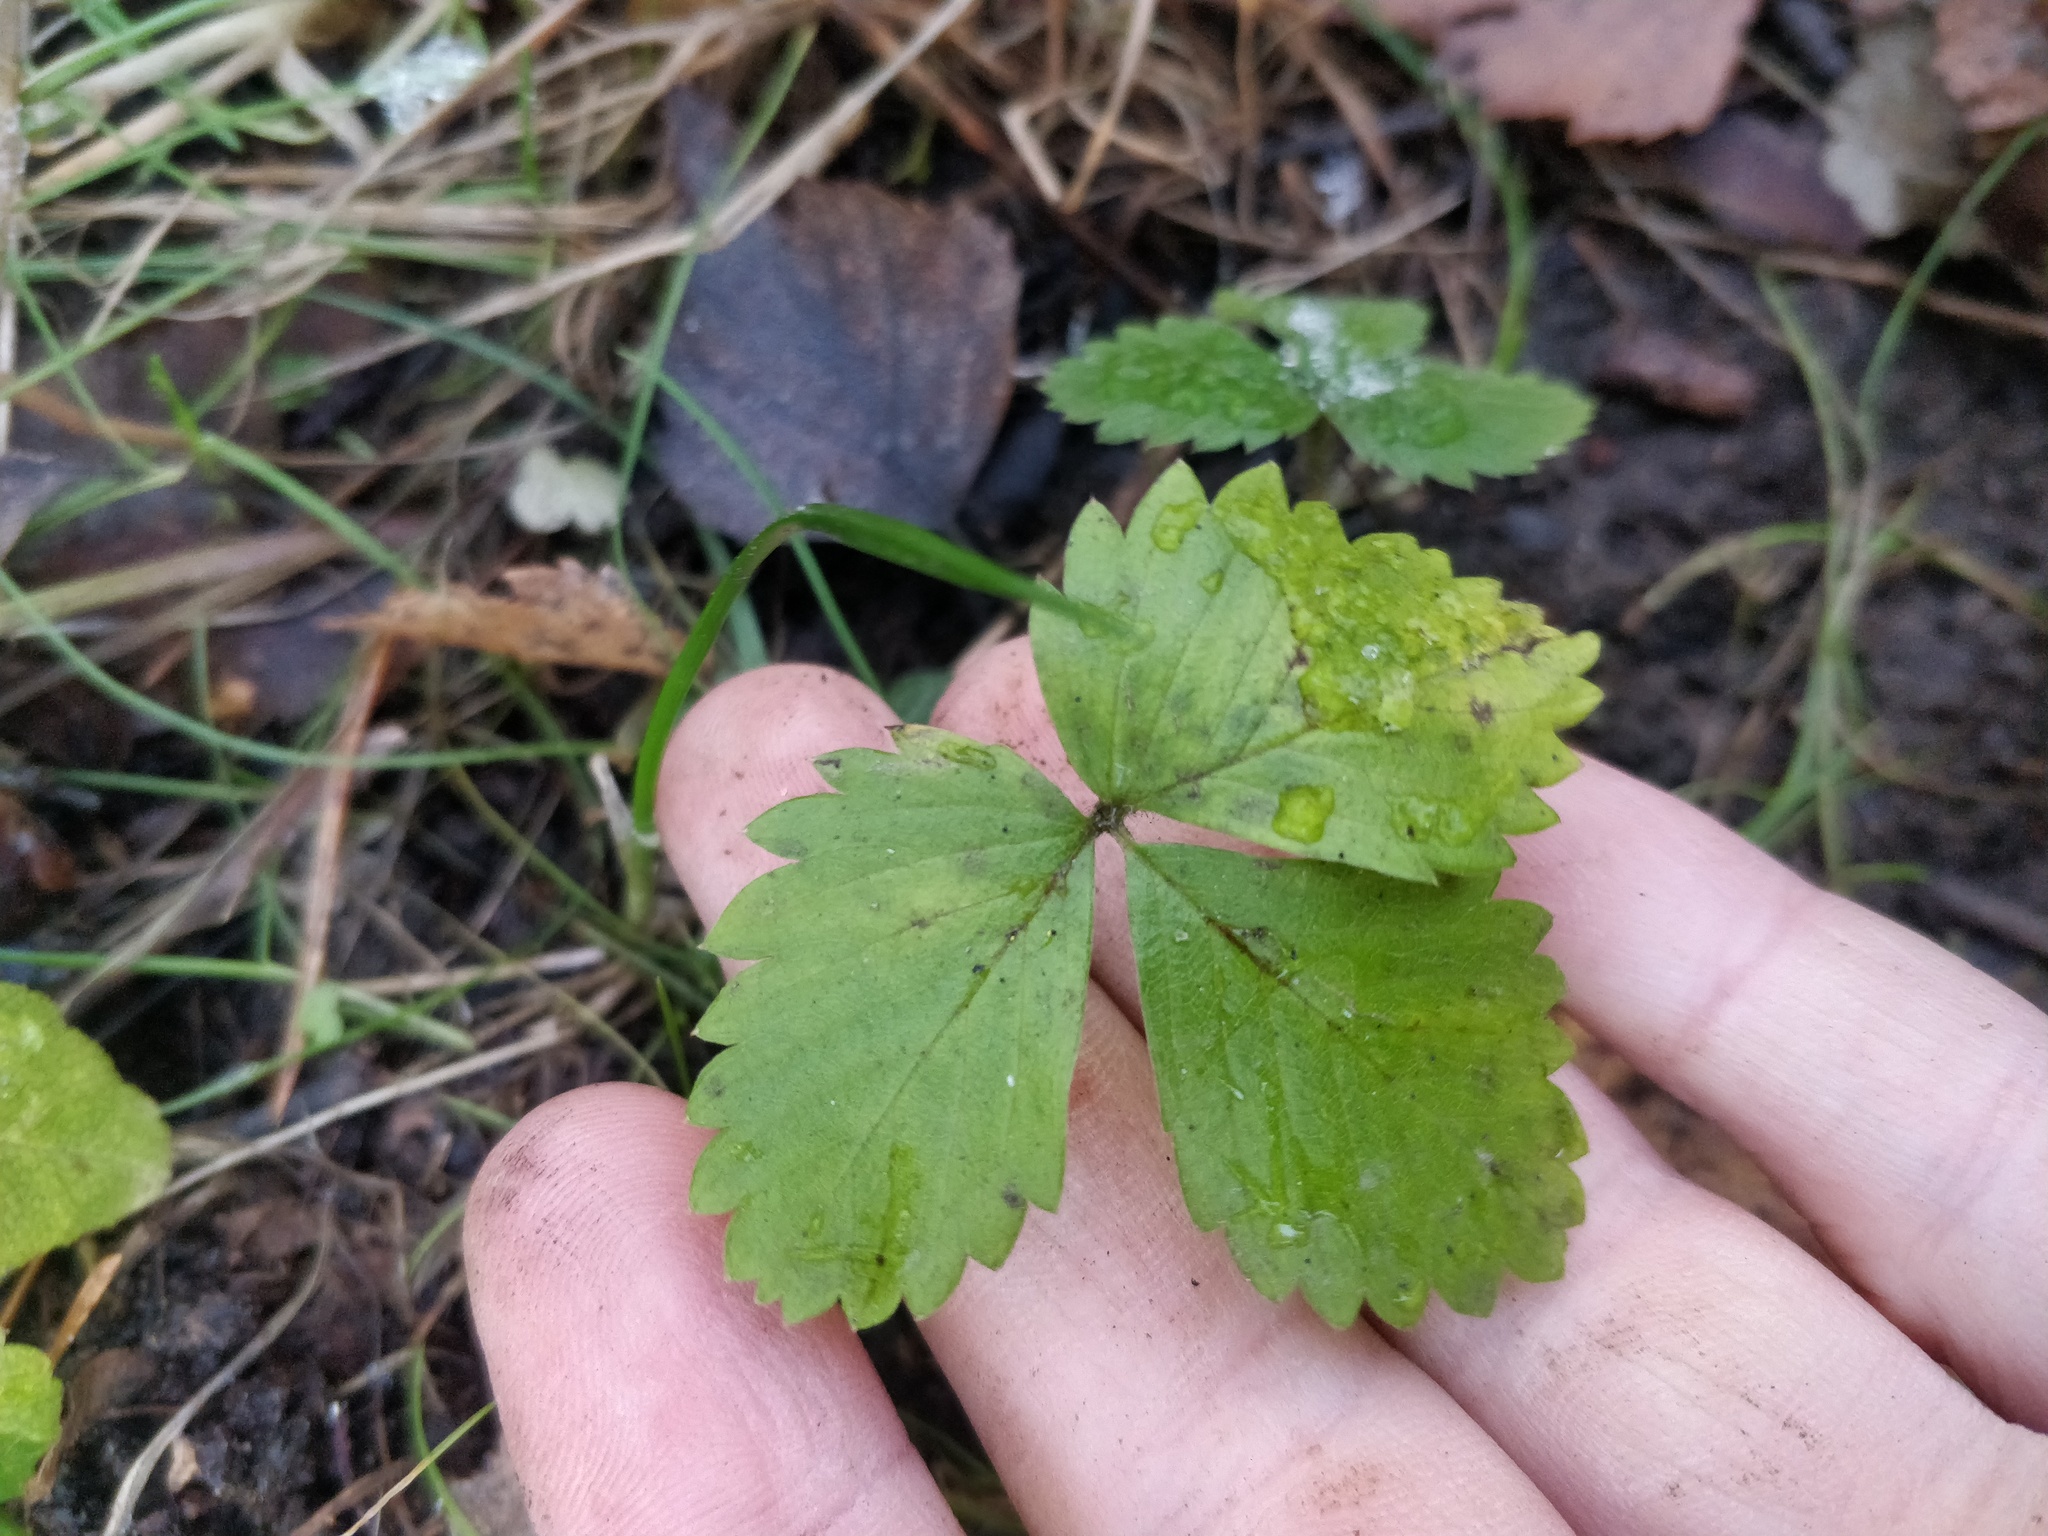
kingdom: Plantae
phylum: Tracheophyta
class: Magnoliopsida
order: Rosales
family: Rosaceae
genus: Fragaria
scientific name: Fragaria vesca
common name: Wild strawberry
